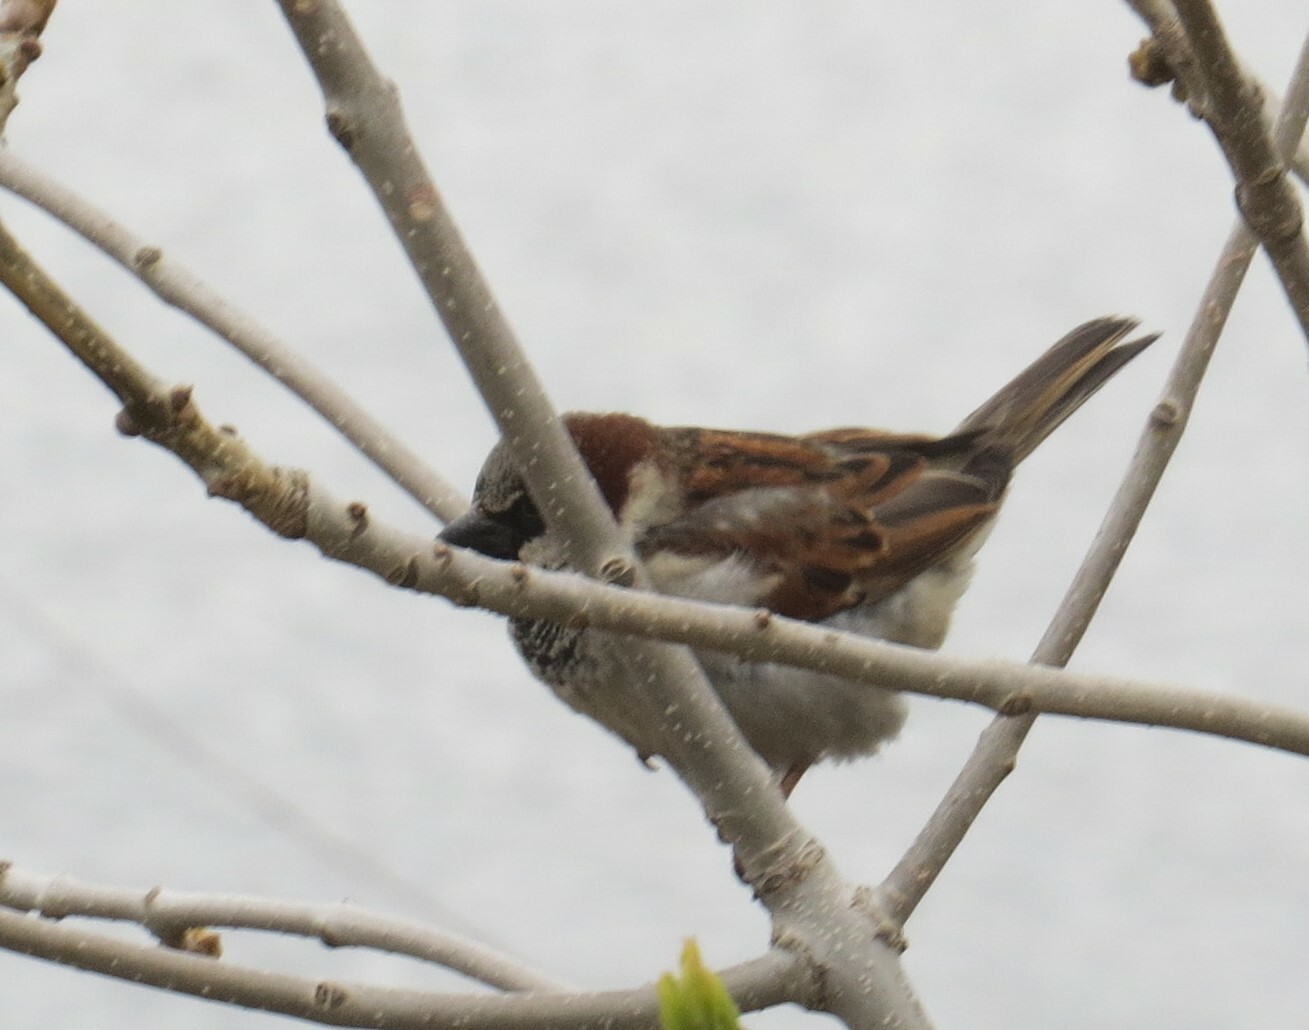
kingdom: Animalia
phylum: Chordata
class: Aves
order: Passeriformes
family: Passeridae
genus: Passer
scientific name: Passer domesticus
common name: House sparrow
